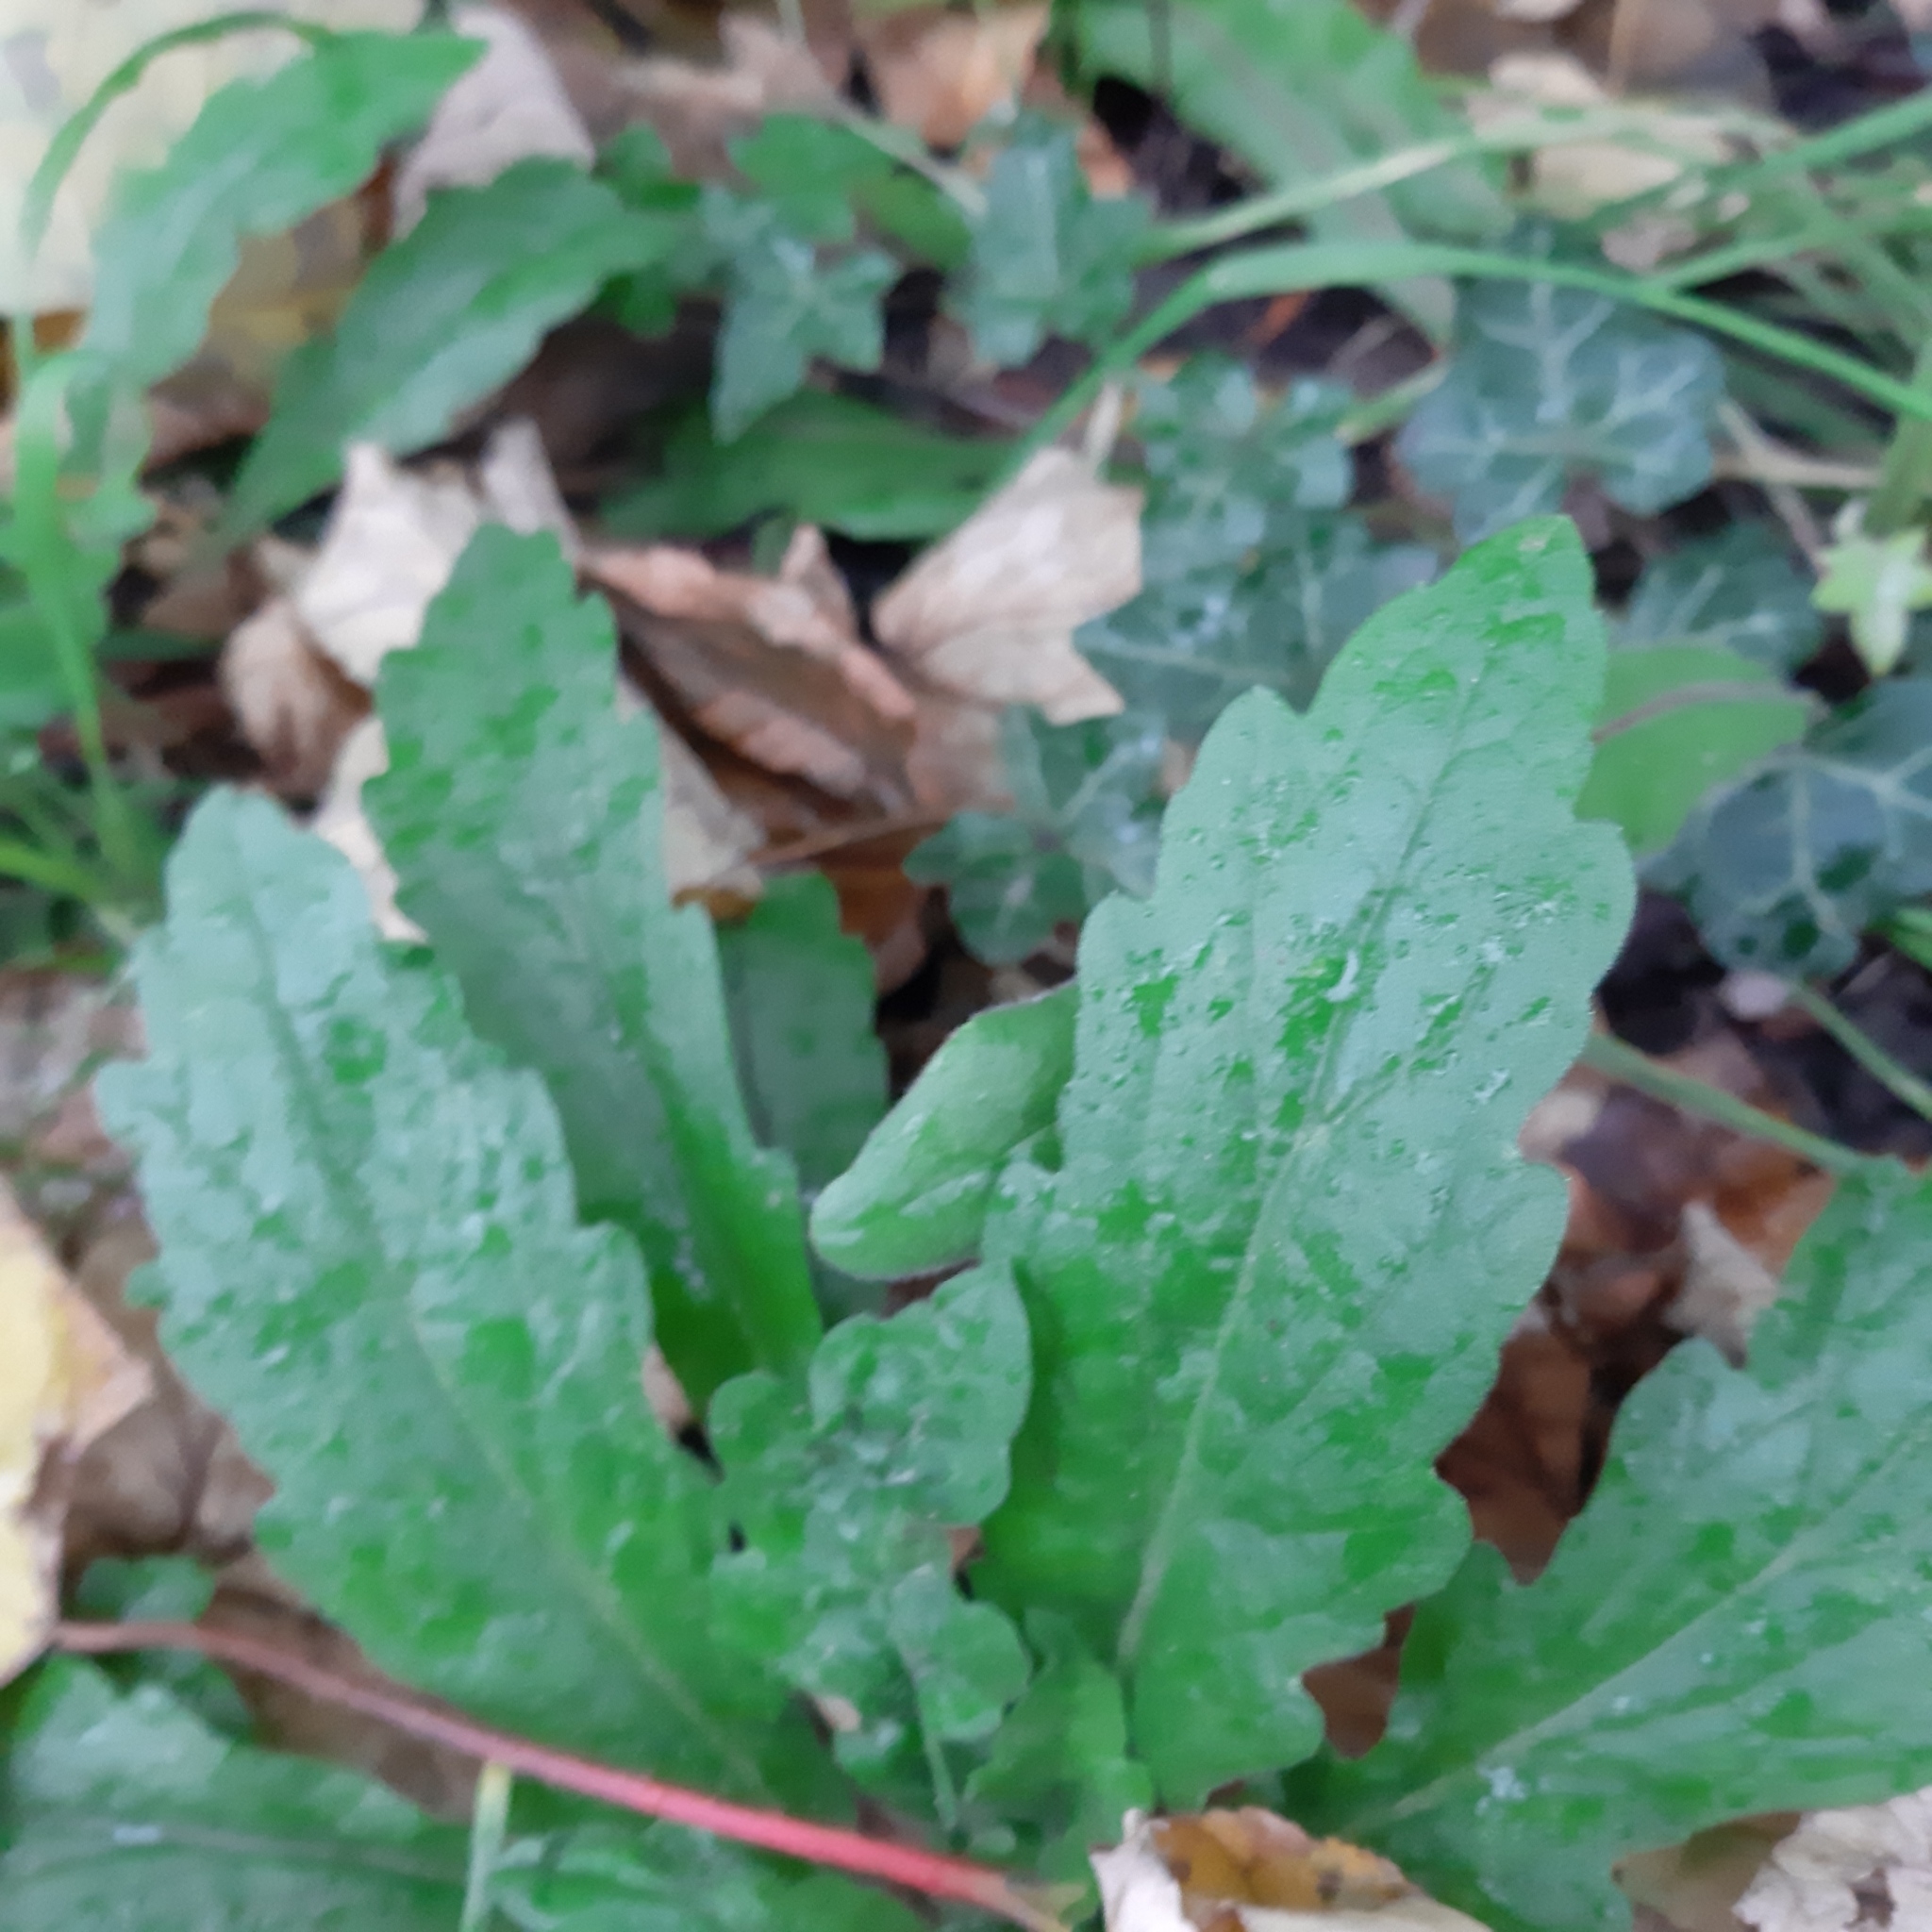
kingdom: Plantae
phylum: Tracheophyta
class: Magnoliopsida
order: Asterales
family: Asteraceae
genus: Erigeron
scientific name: Erigeron sumatrensis
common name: Daisy
